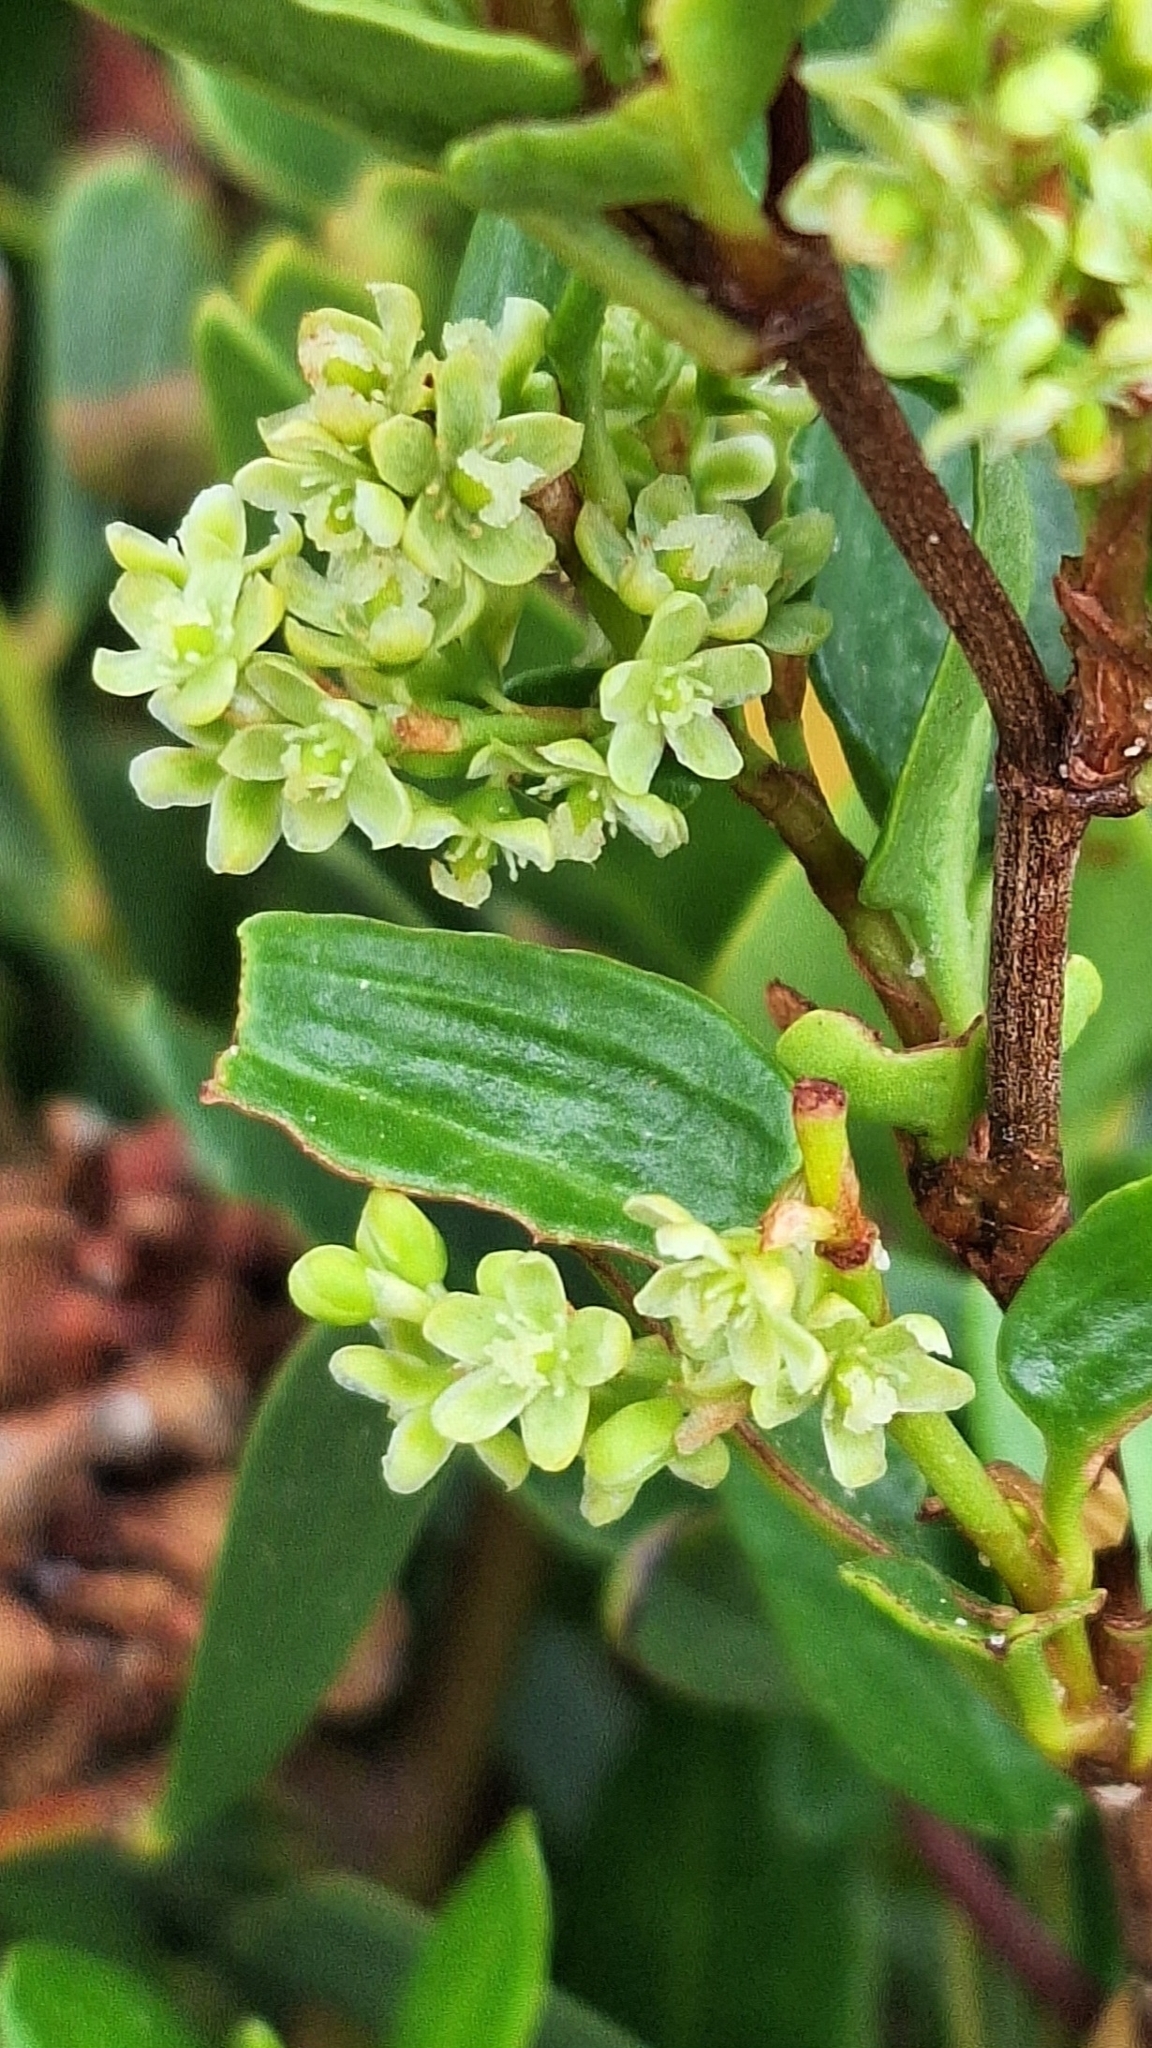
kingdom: Plantae
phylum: Tracheophyta
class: Magnoliopsida
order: Caryophyllales
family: Polygonaceae
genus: Muehlenbeckia
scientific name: Muehlenbeckia gunnii
